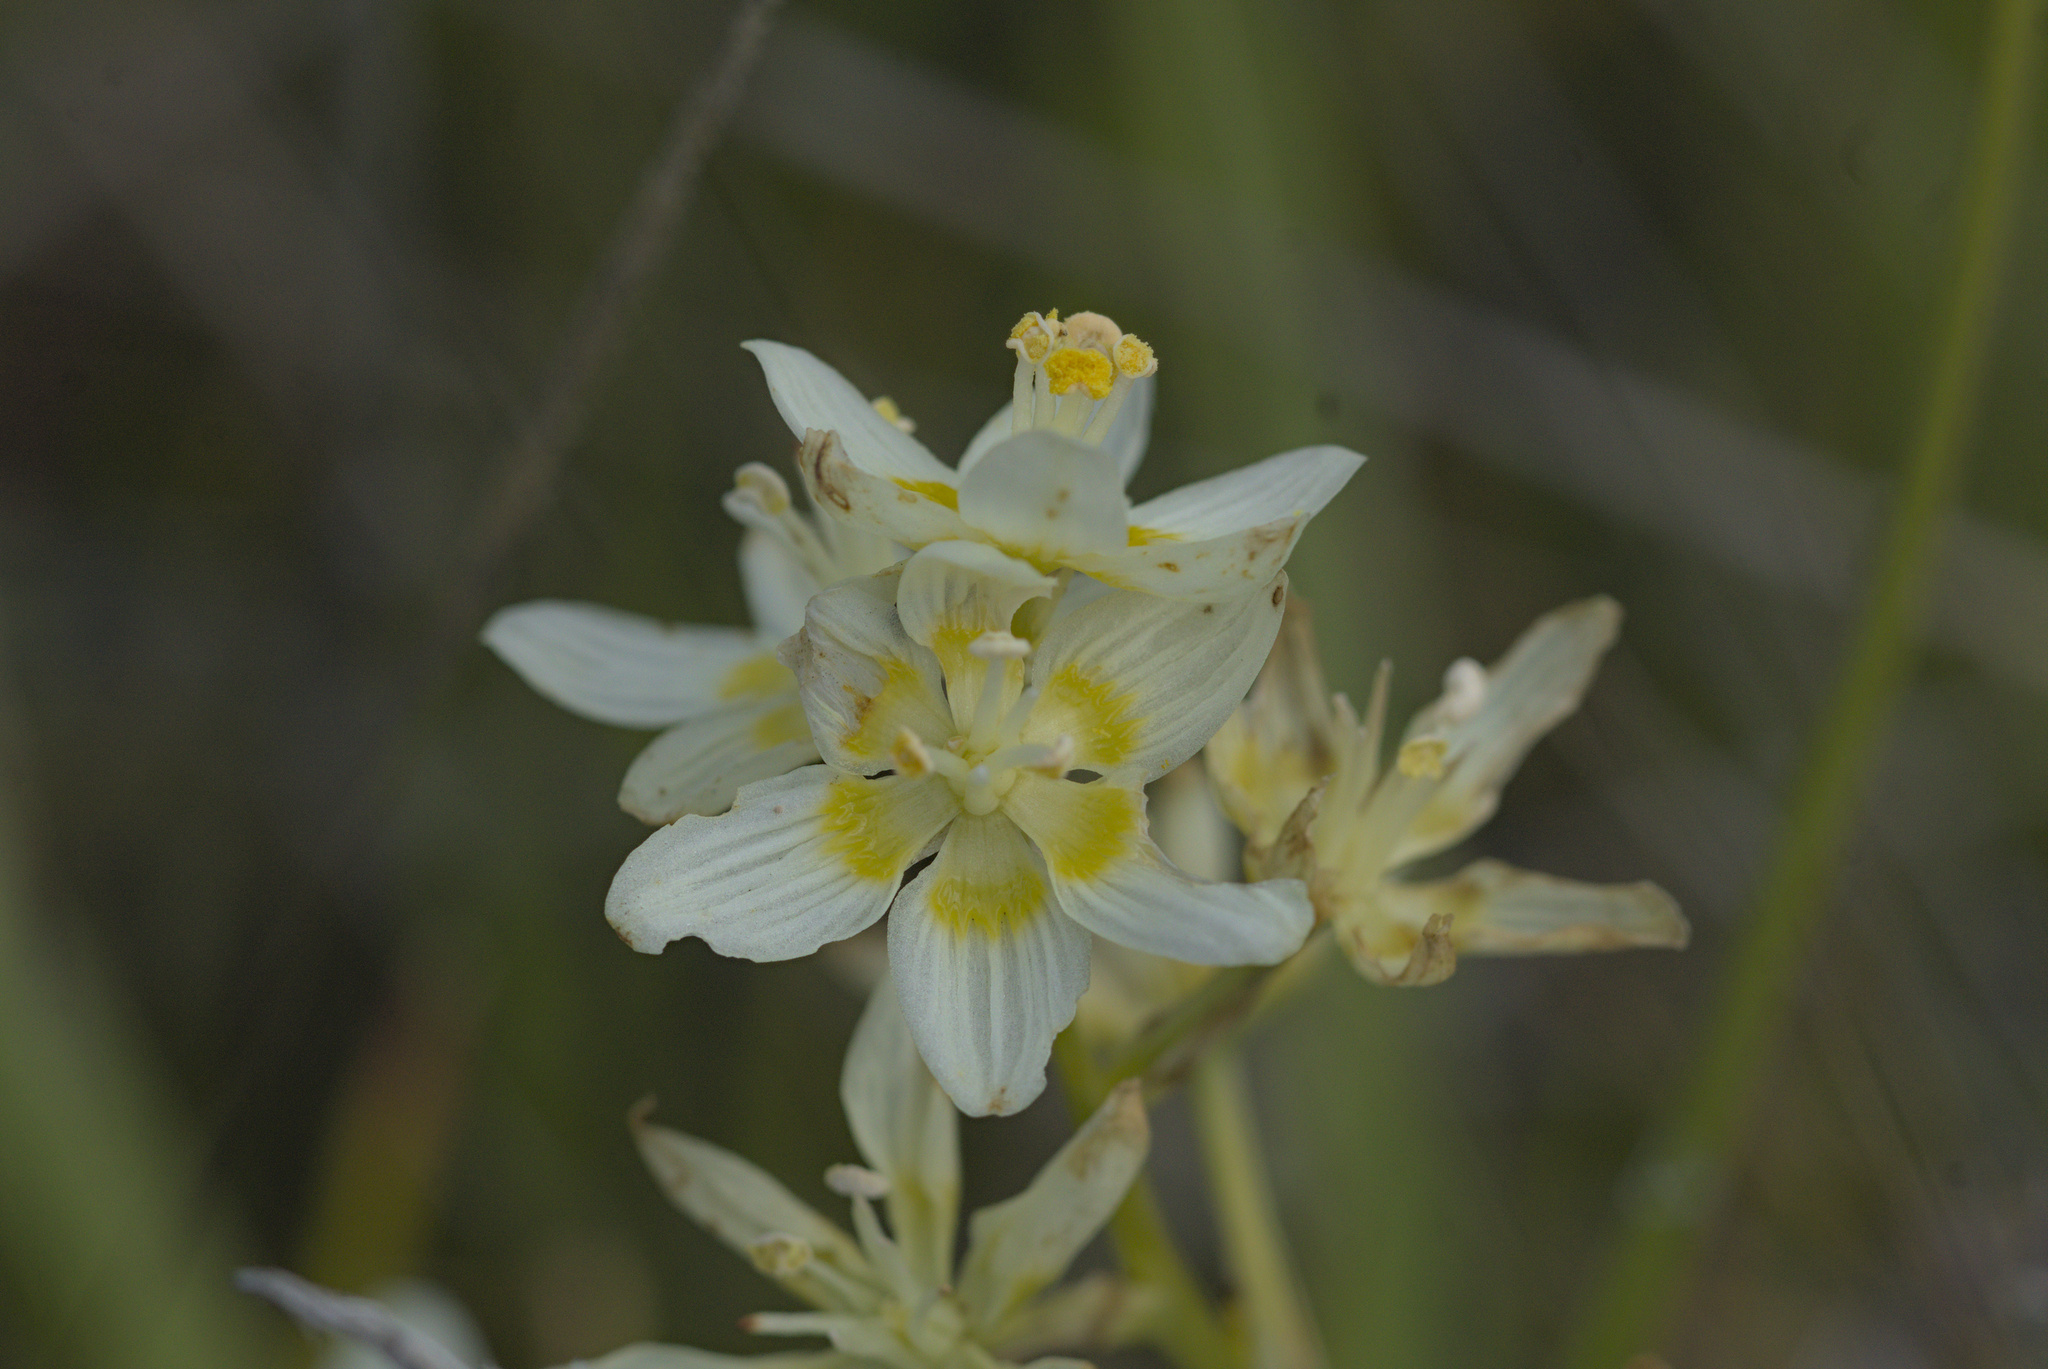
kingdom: Plantae
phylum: Tracheophyta
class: Liliopsida
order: Liliales
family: Melanthiaceae
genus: Toxicoscordion
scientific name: Toxicoscordion fremontii
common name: Fremont's death camas
